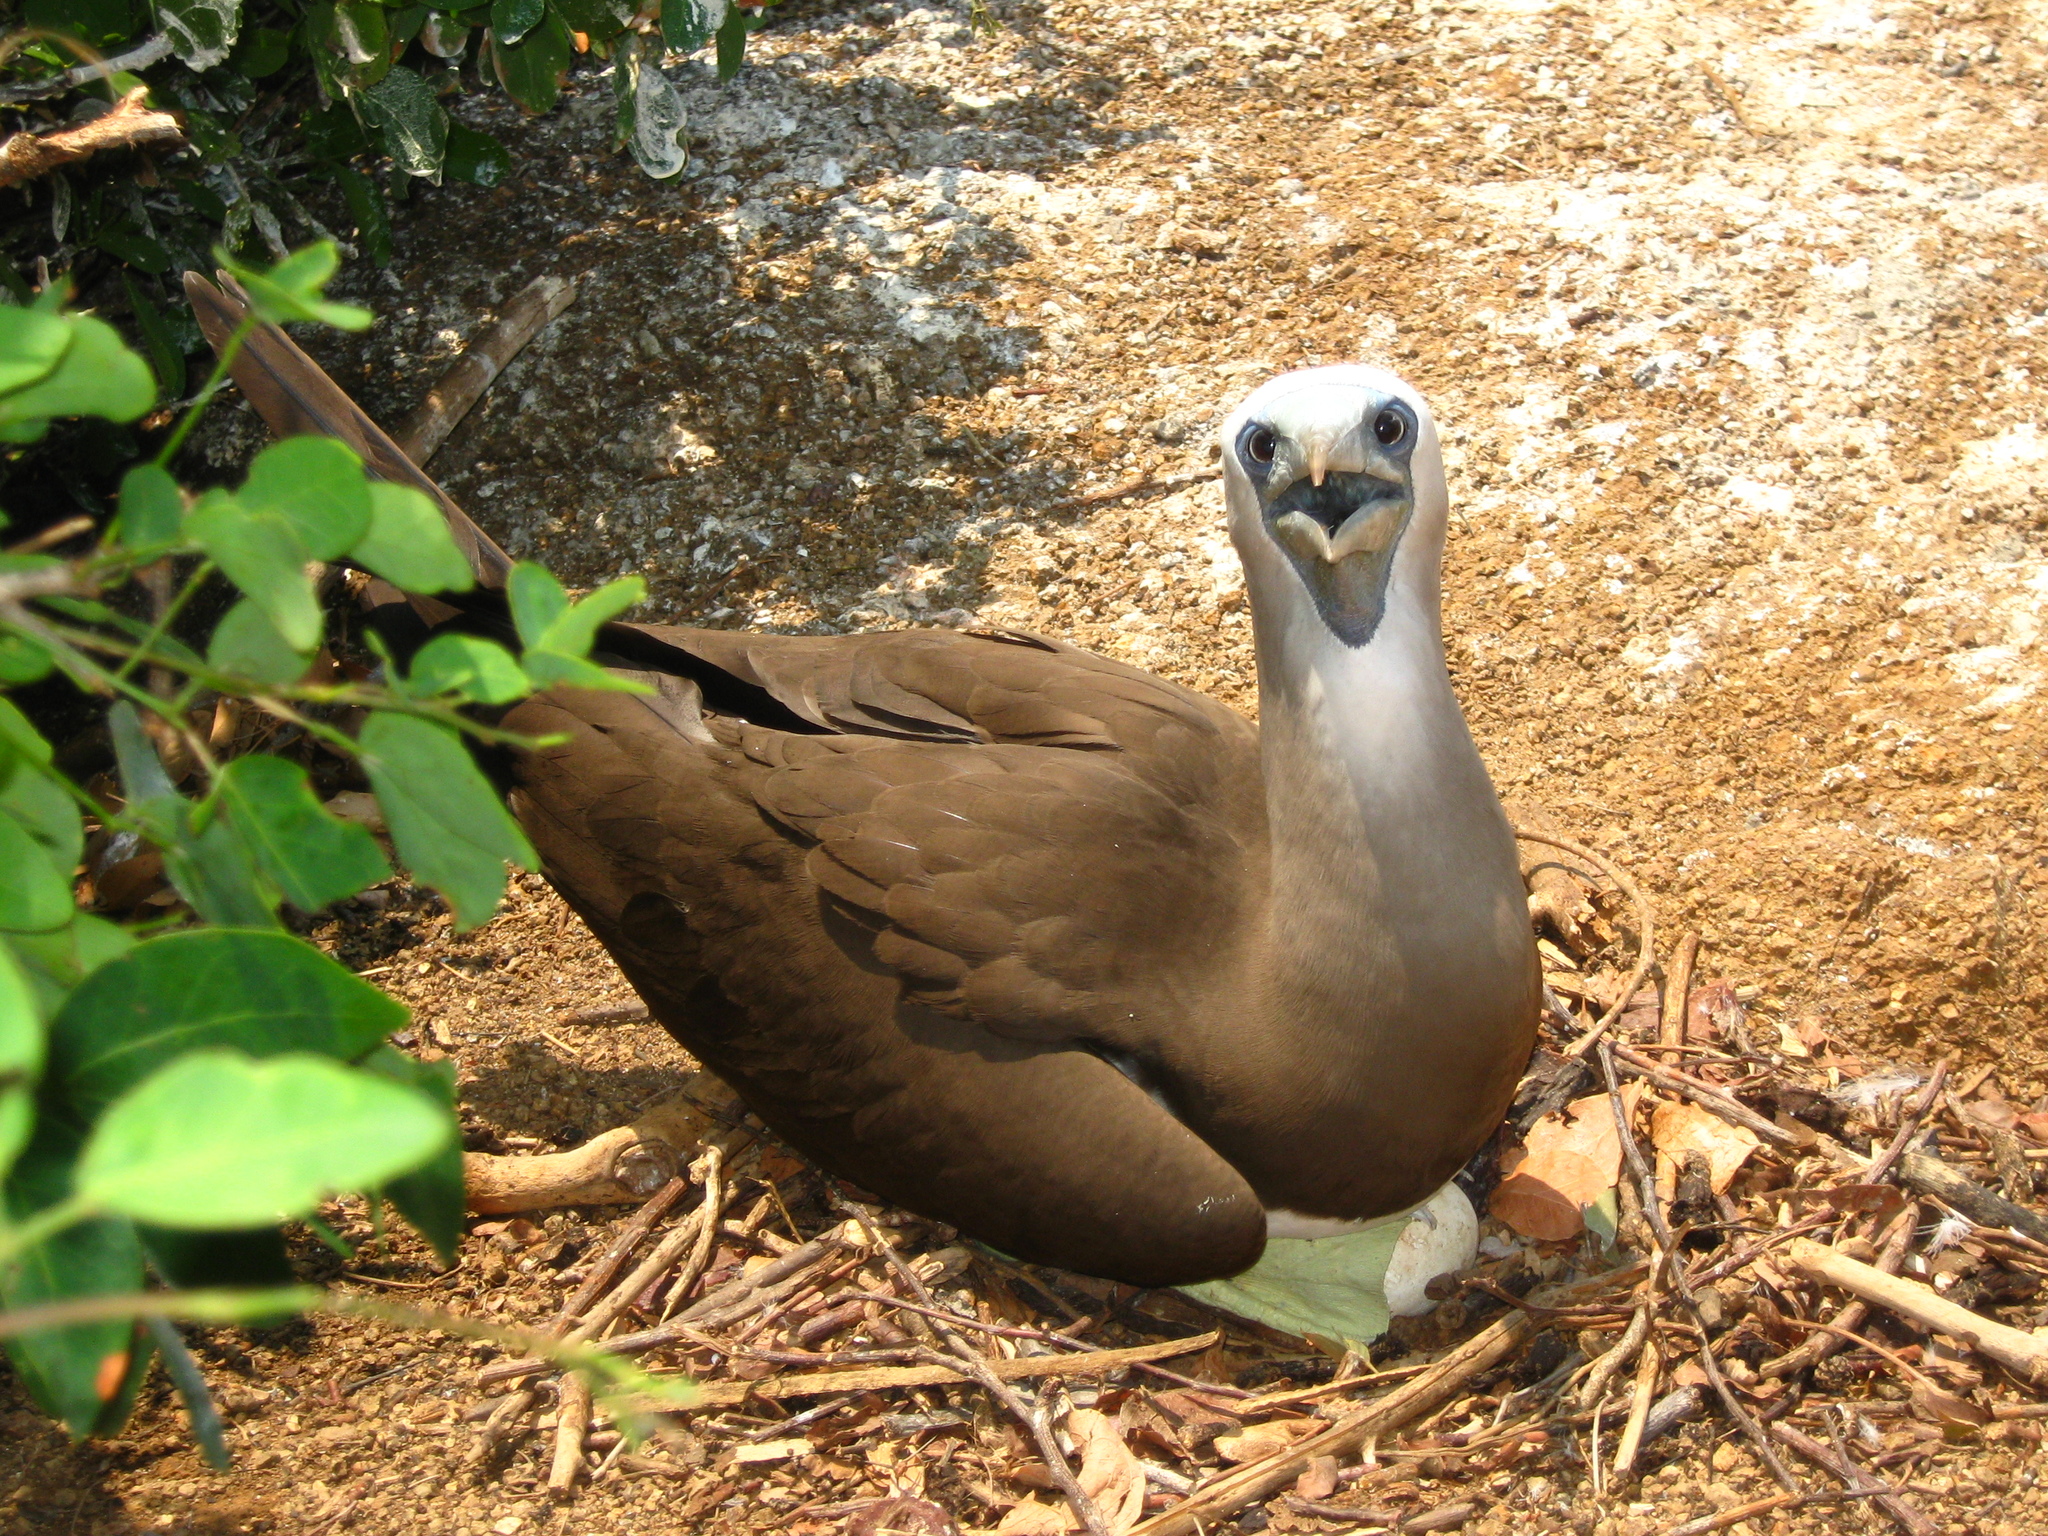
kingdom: Animalia
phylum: Chordata
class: Aves
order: Suliformes
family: Sulidae
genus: Sula
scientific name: Sula leucogaster
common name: Brown booby
